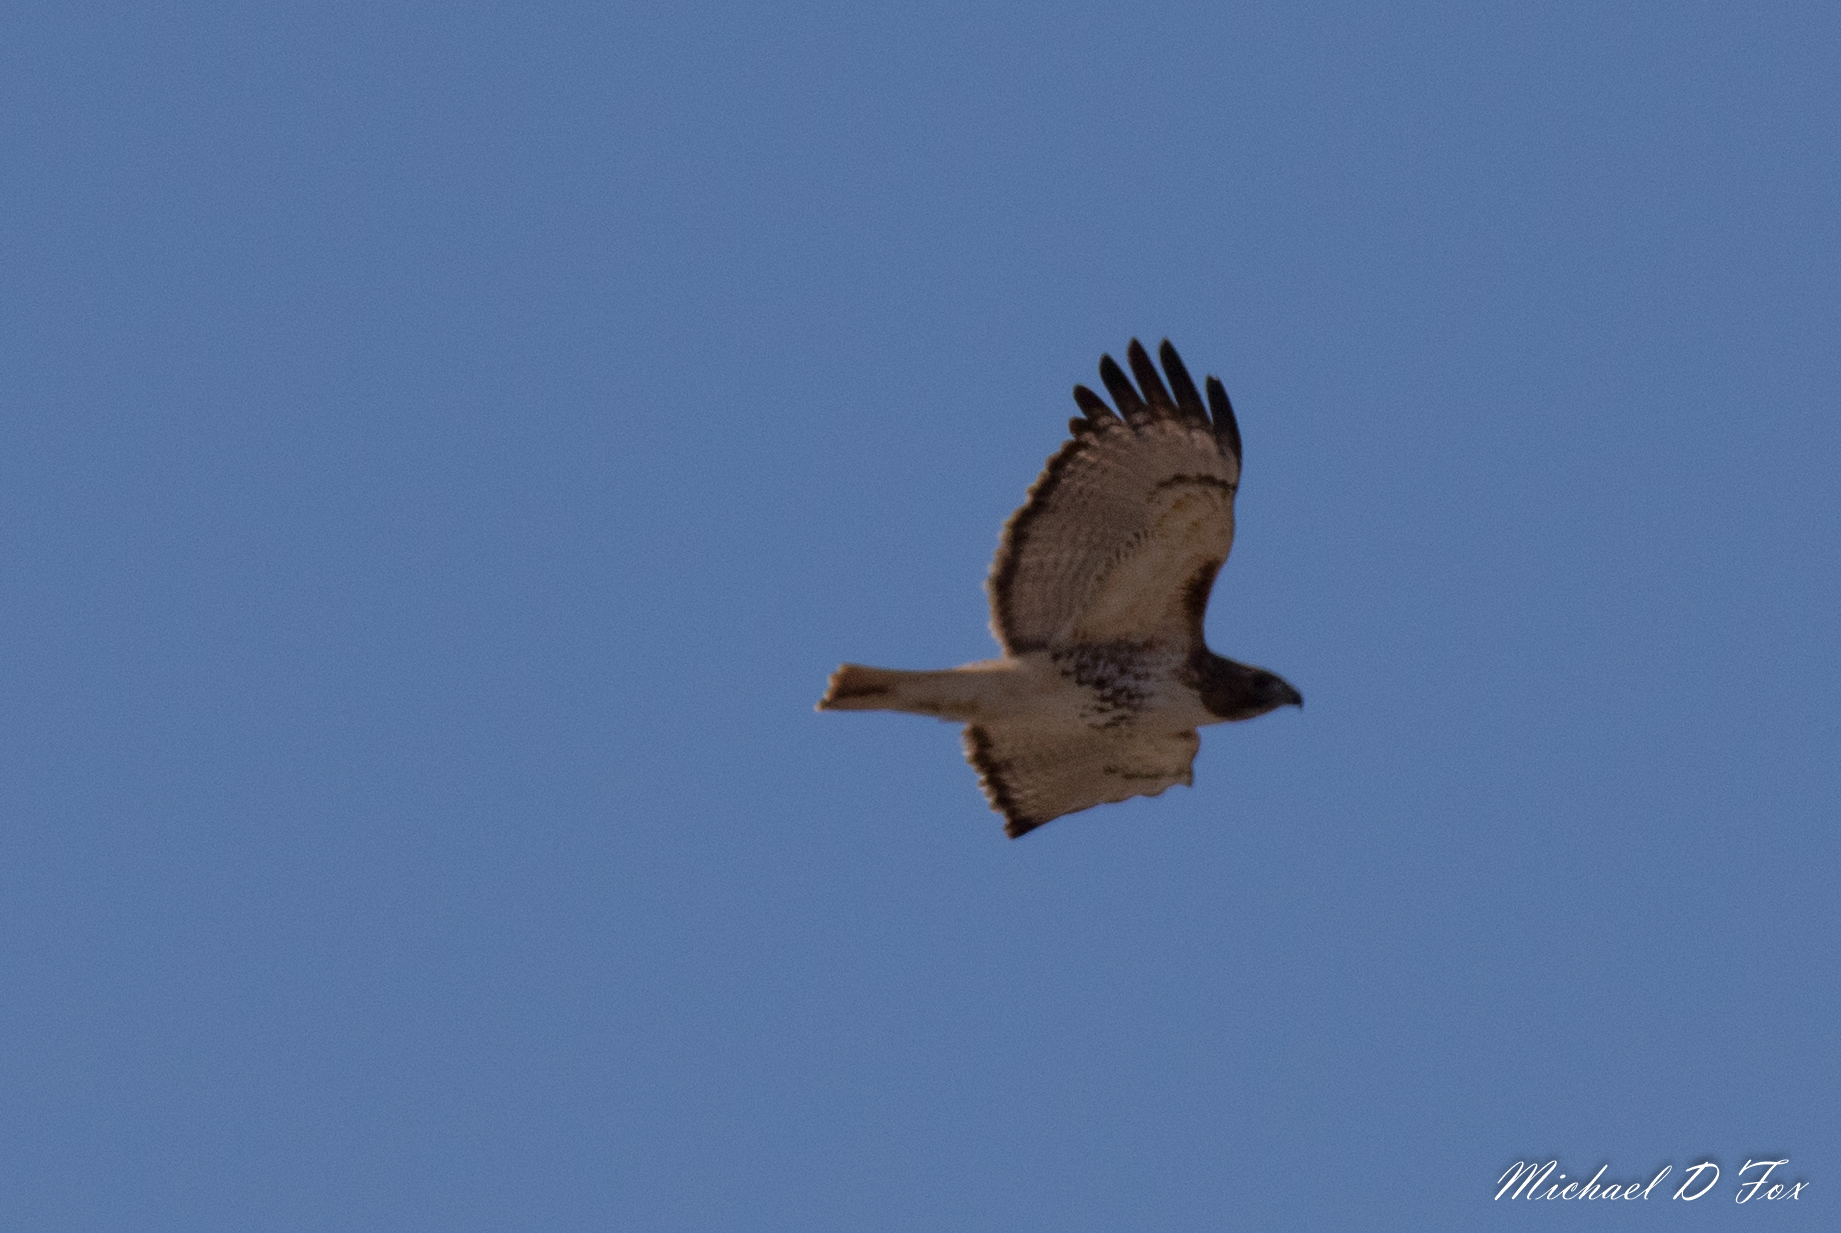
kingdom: Animalia
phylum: Chordata
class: Aves
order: Accipitriformes
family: Accipitridae
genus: Buteo
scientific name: Buteo jamaicensis
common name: Red-tailed hawk
